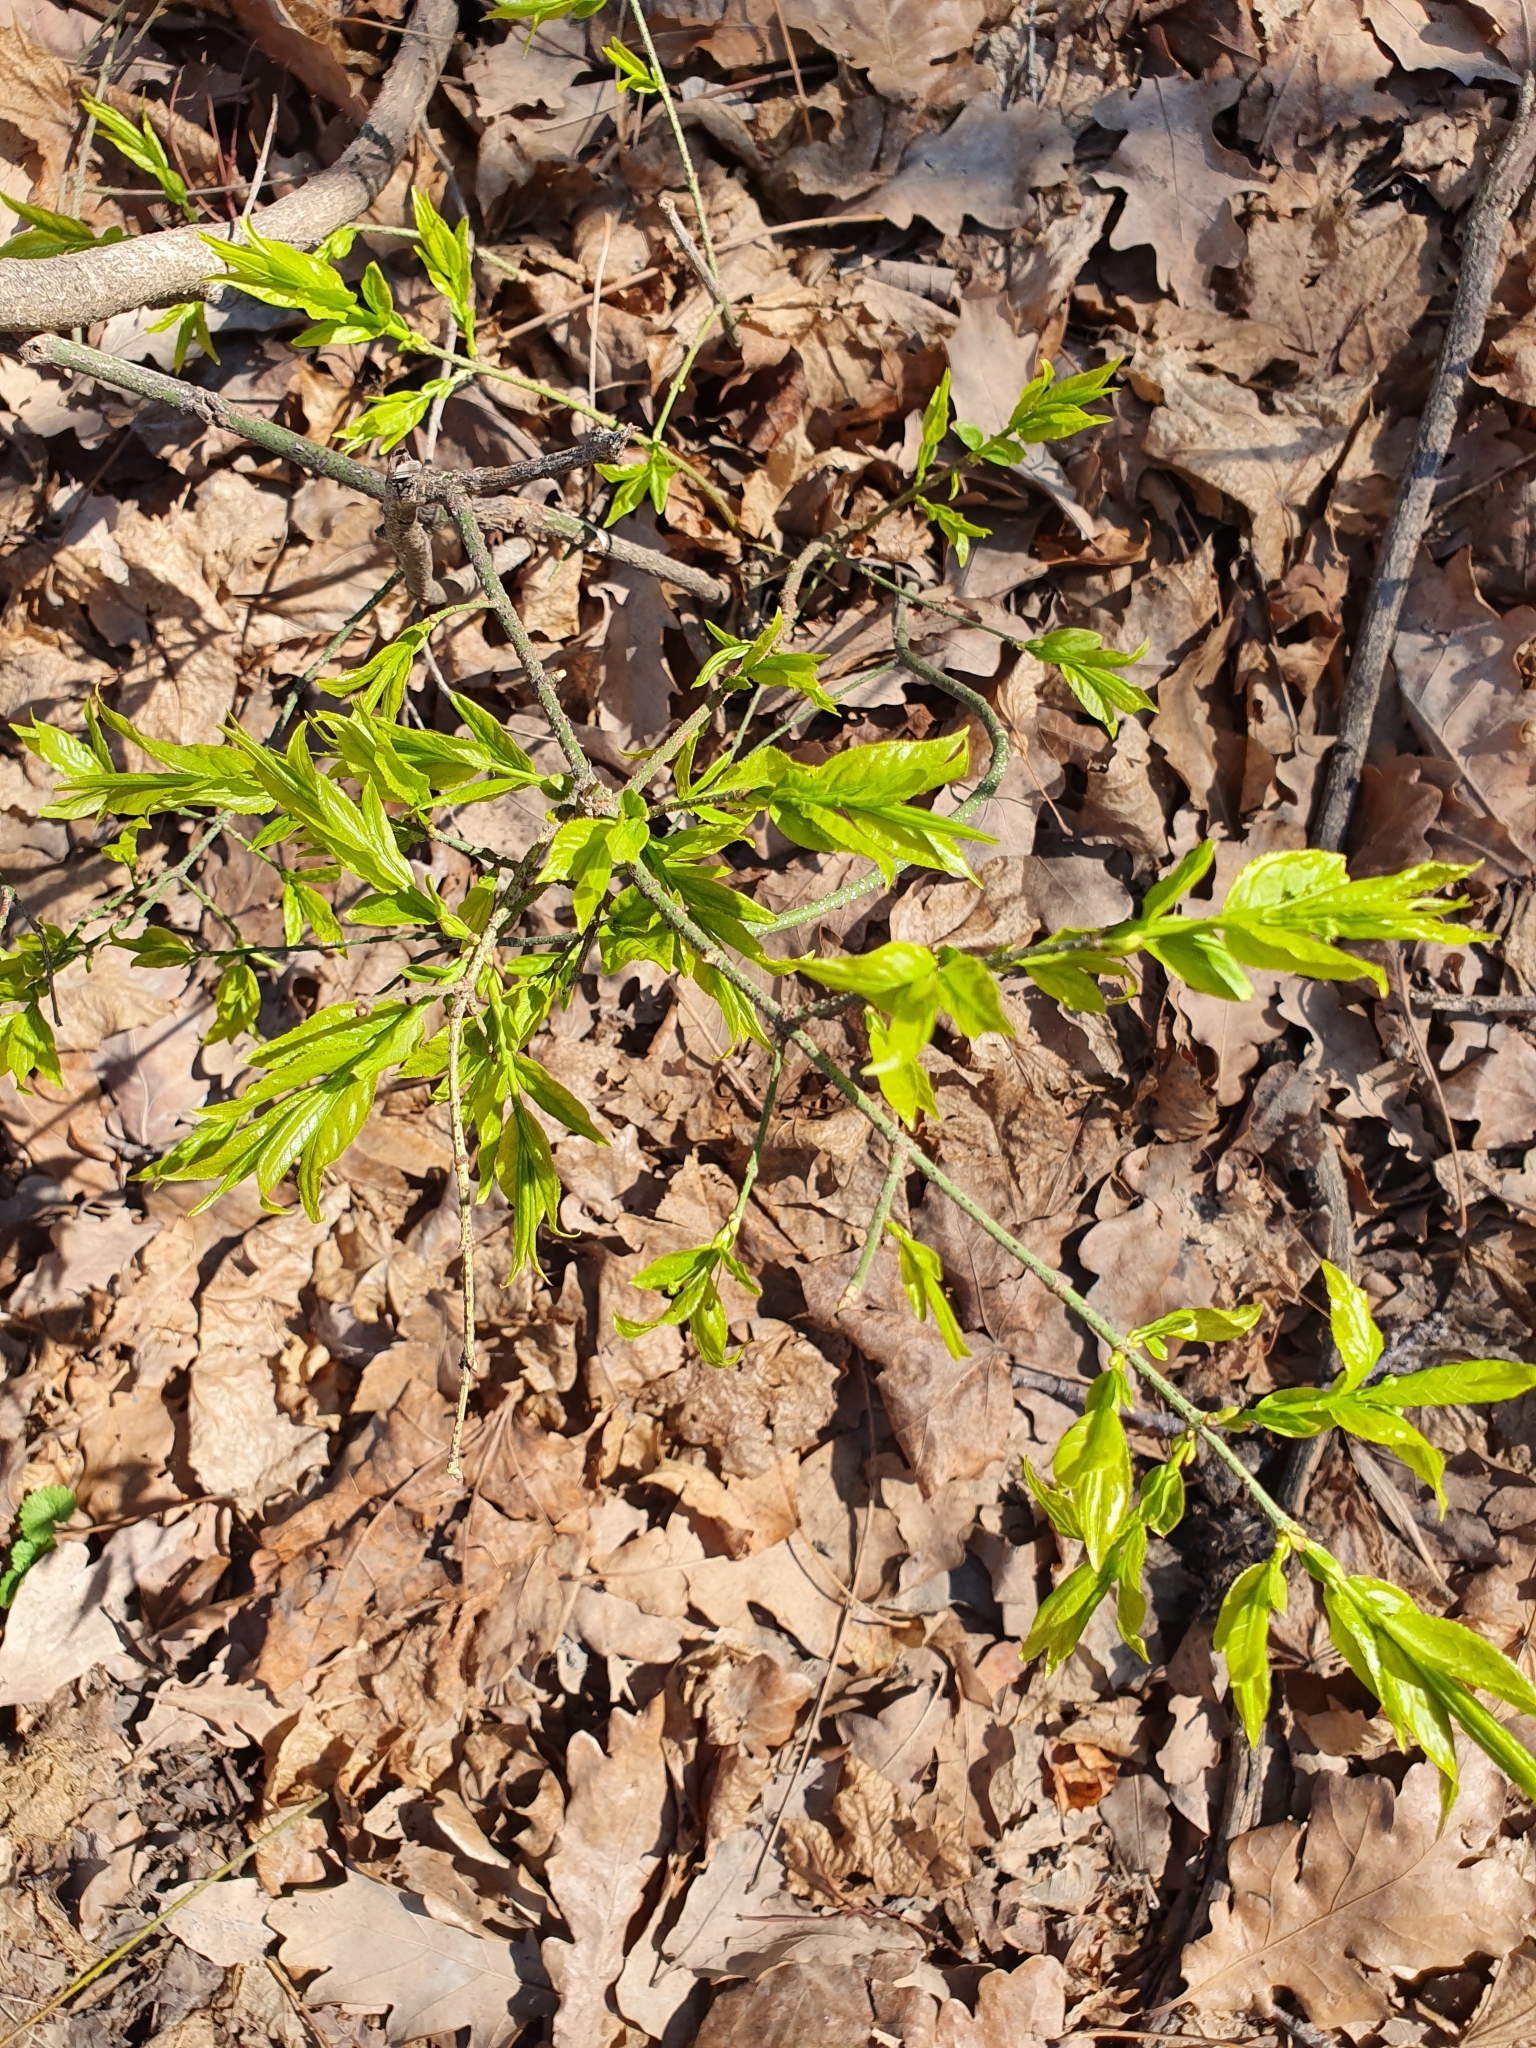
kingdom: Plantae
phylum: Tracheophyta
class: Magnoliopsida
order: Celastrales
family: Celastraceae
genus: Euonymus
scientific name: Euonymus verrucosus
